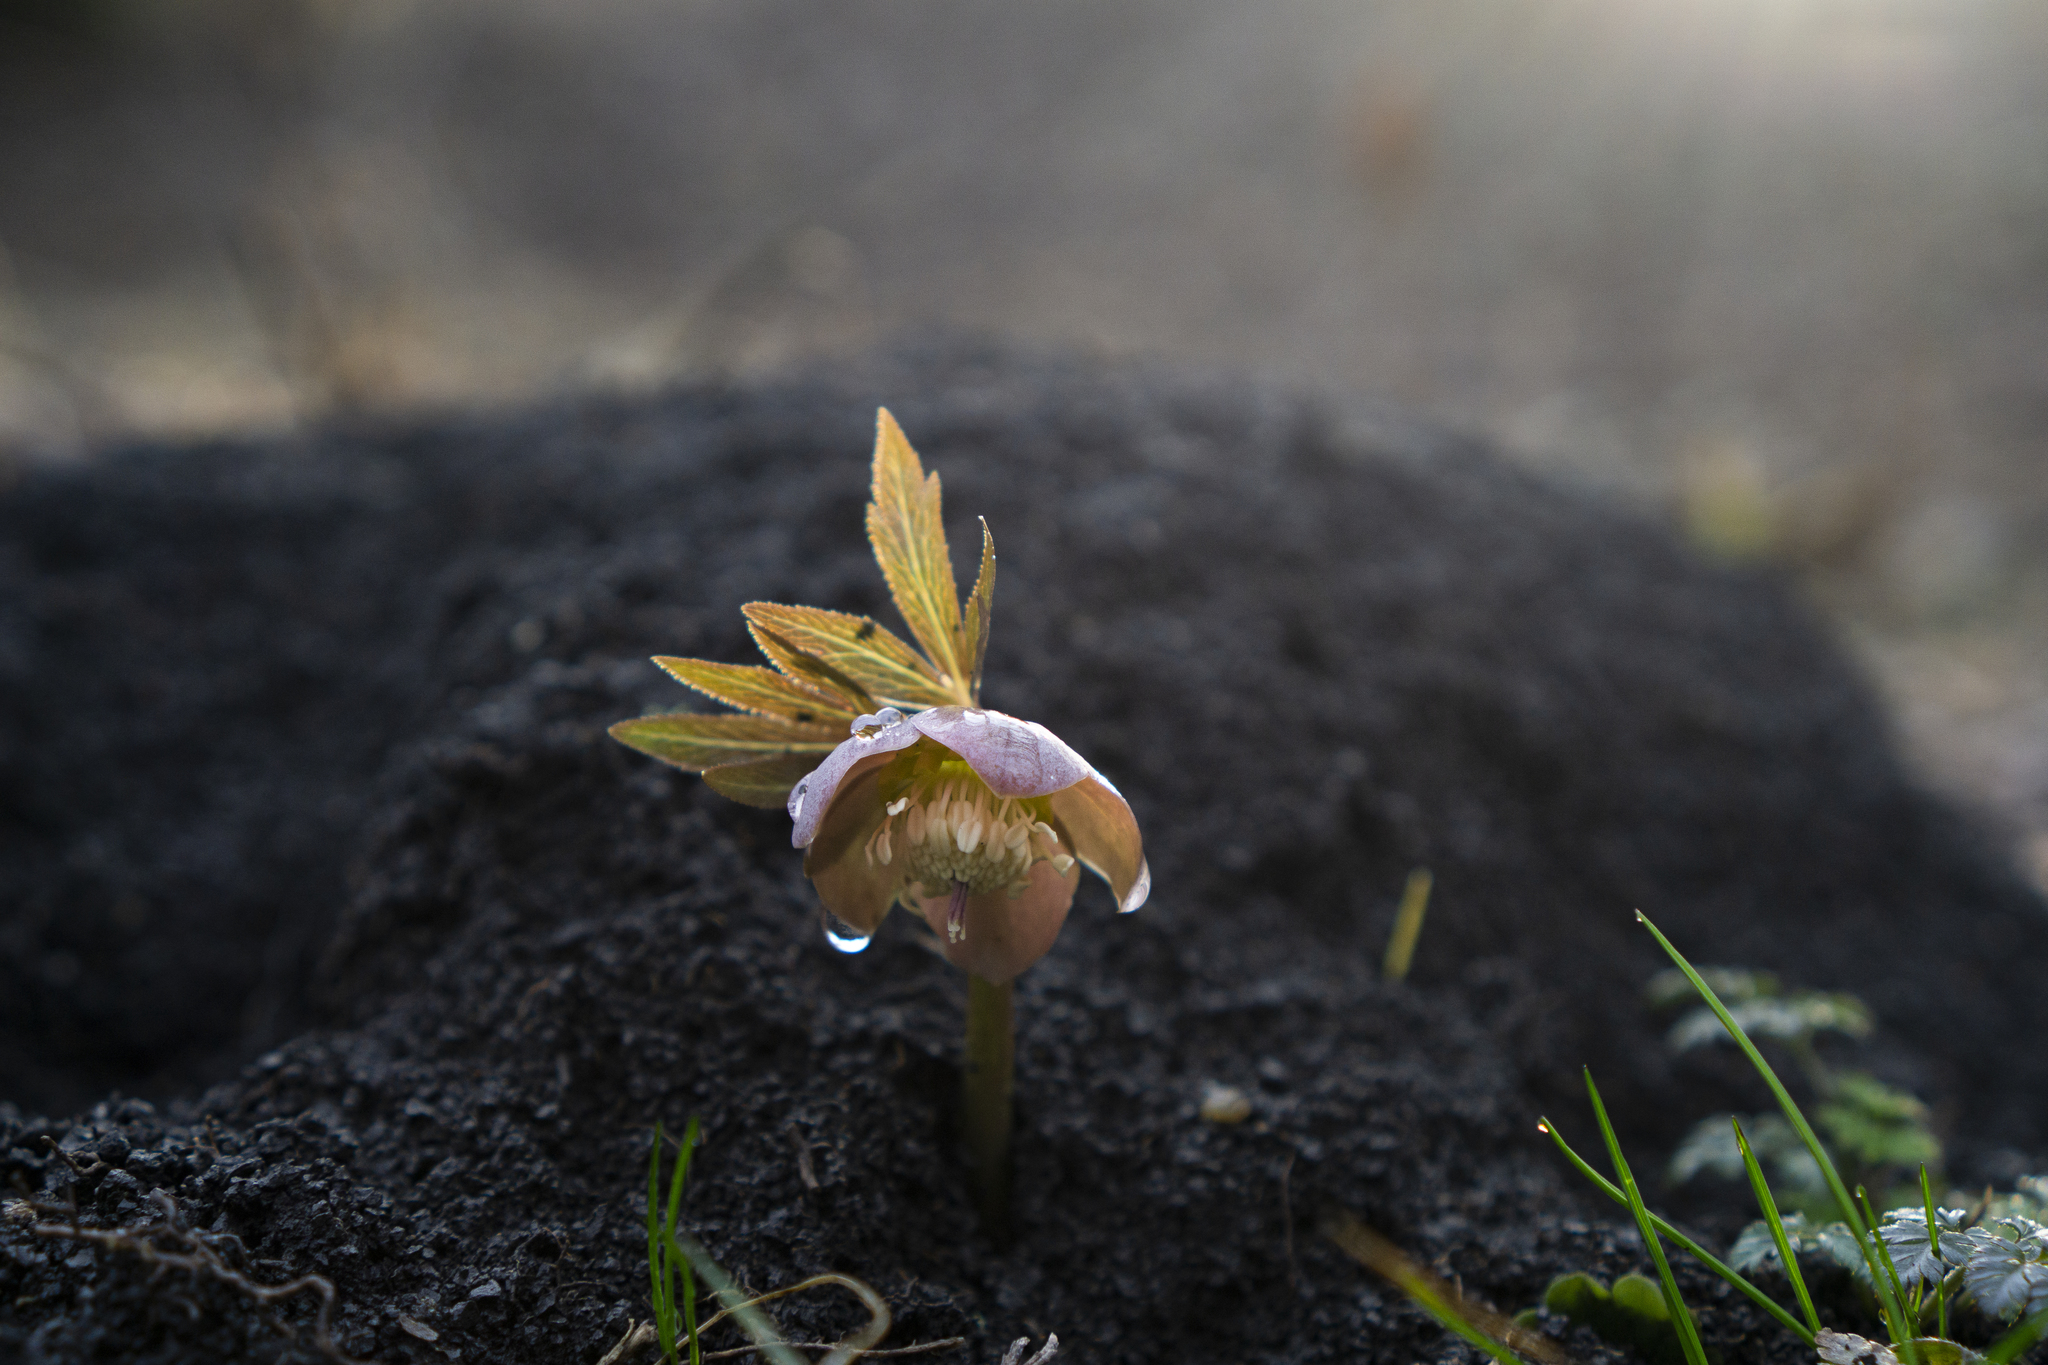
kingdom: Plantae
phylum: Tracheophyta
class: Magnoliopsida
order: Ranunculales
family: Ranunculaceae
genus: Helleborus
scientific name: Helleborus purpurascens
